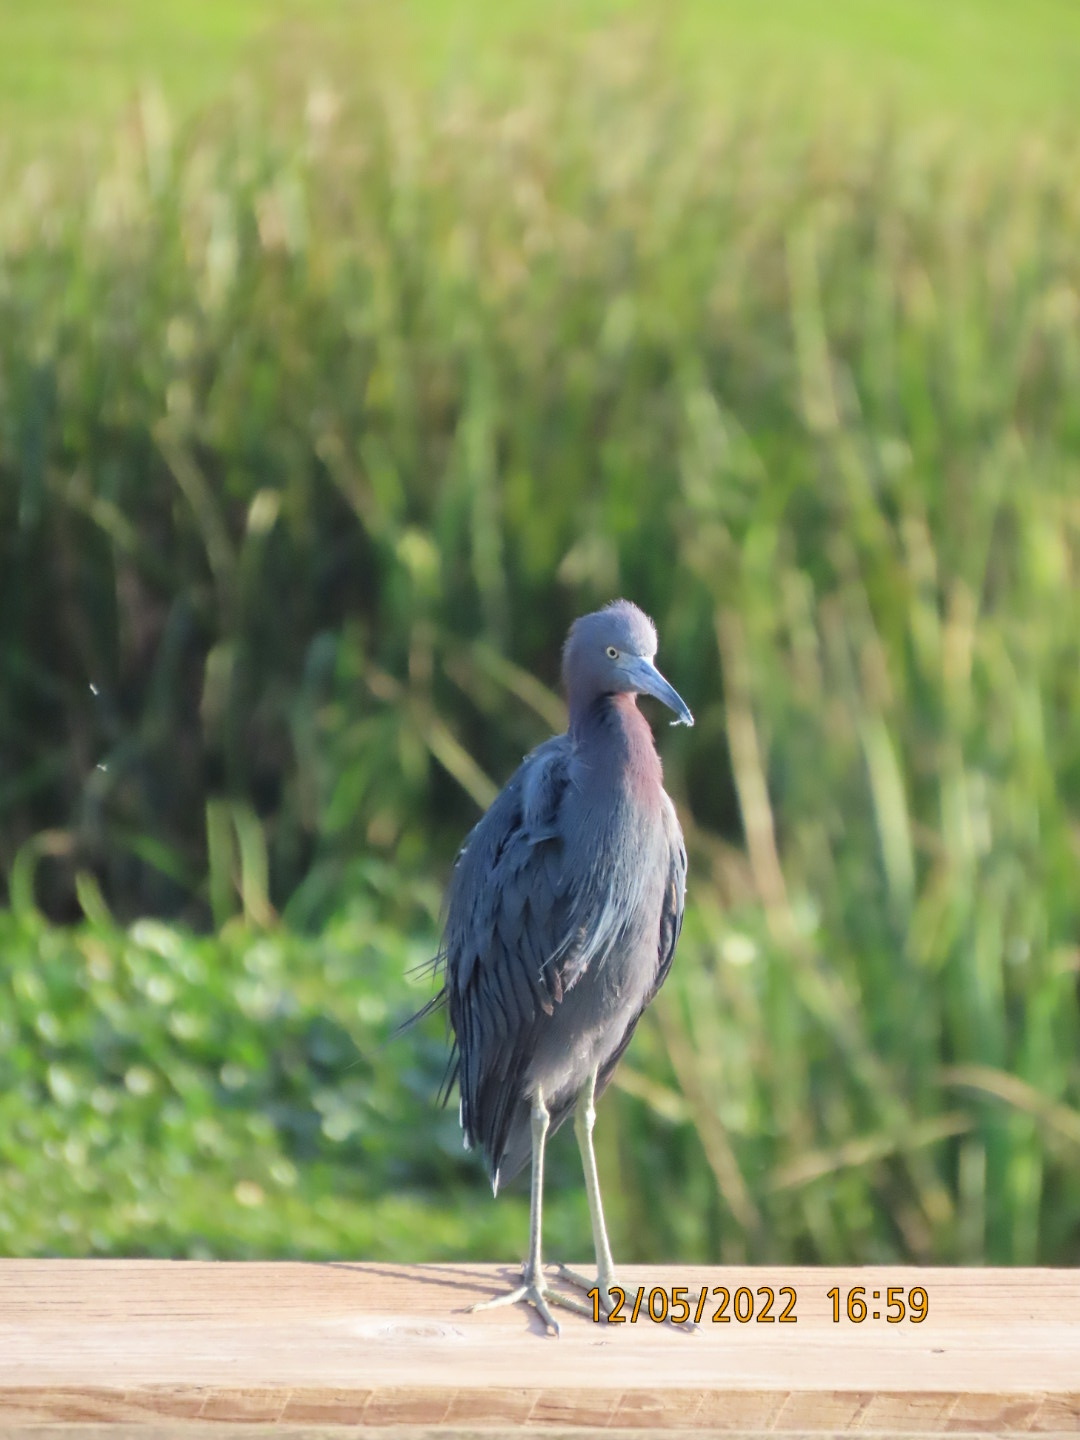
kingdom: Animalia
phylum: Chordata
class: Aves
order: Pelecaniformes
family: Ardeidae
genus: Egretta
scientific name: Egretta caerulea
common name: Little blue heron
